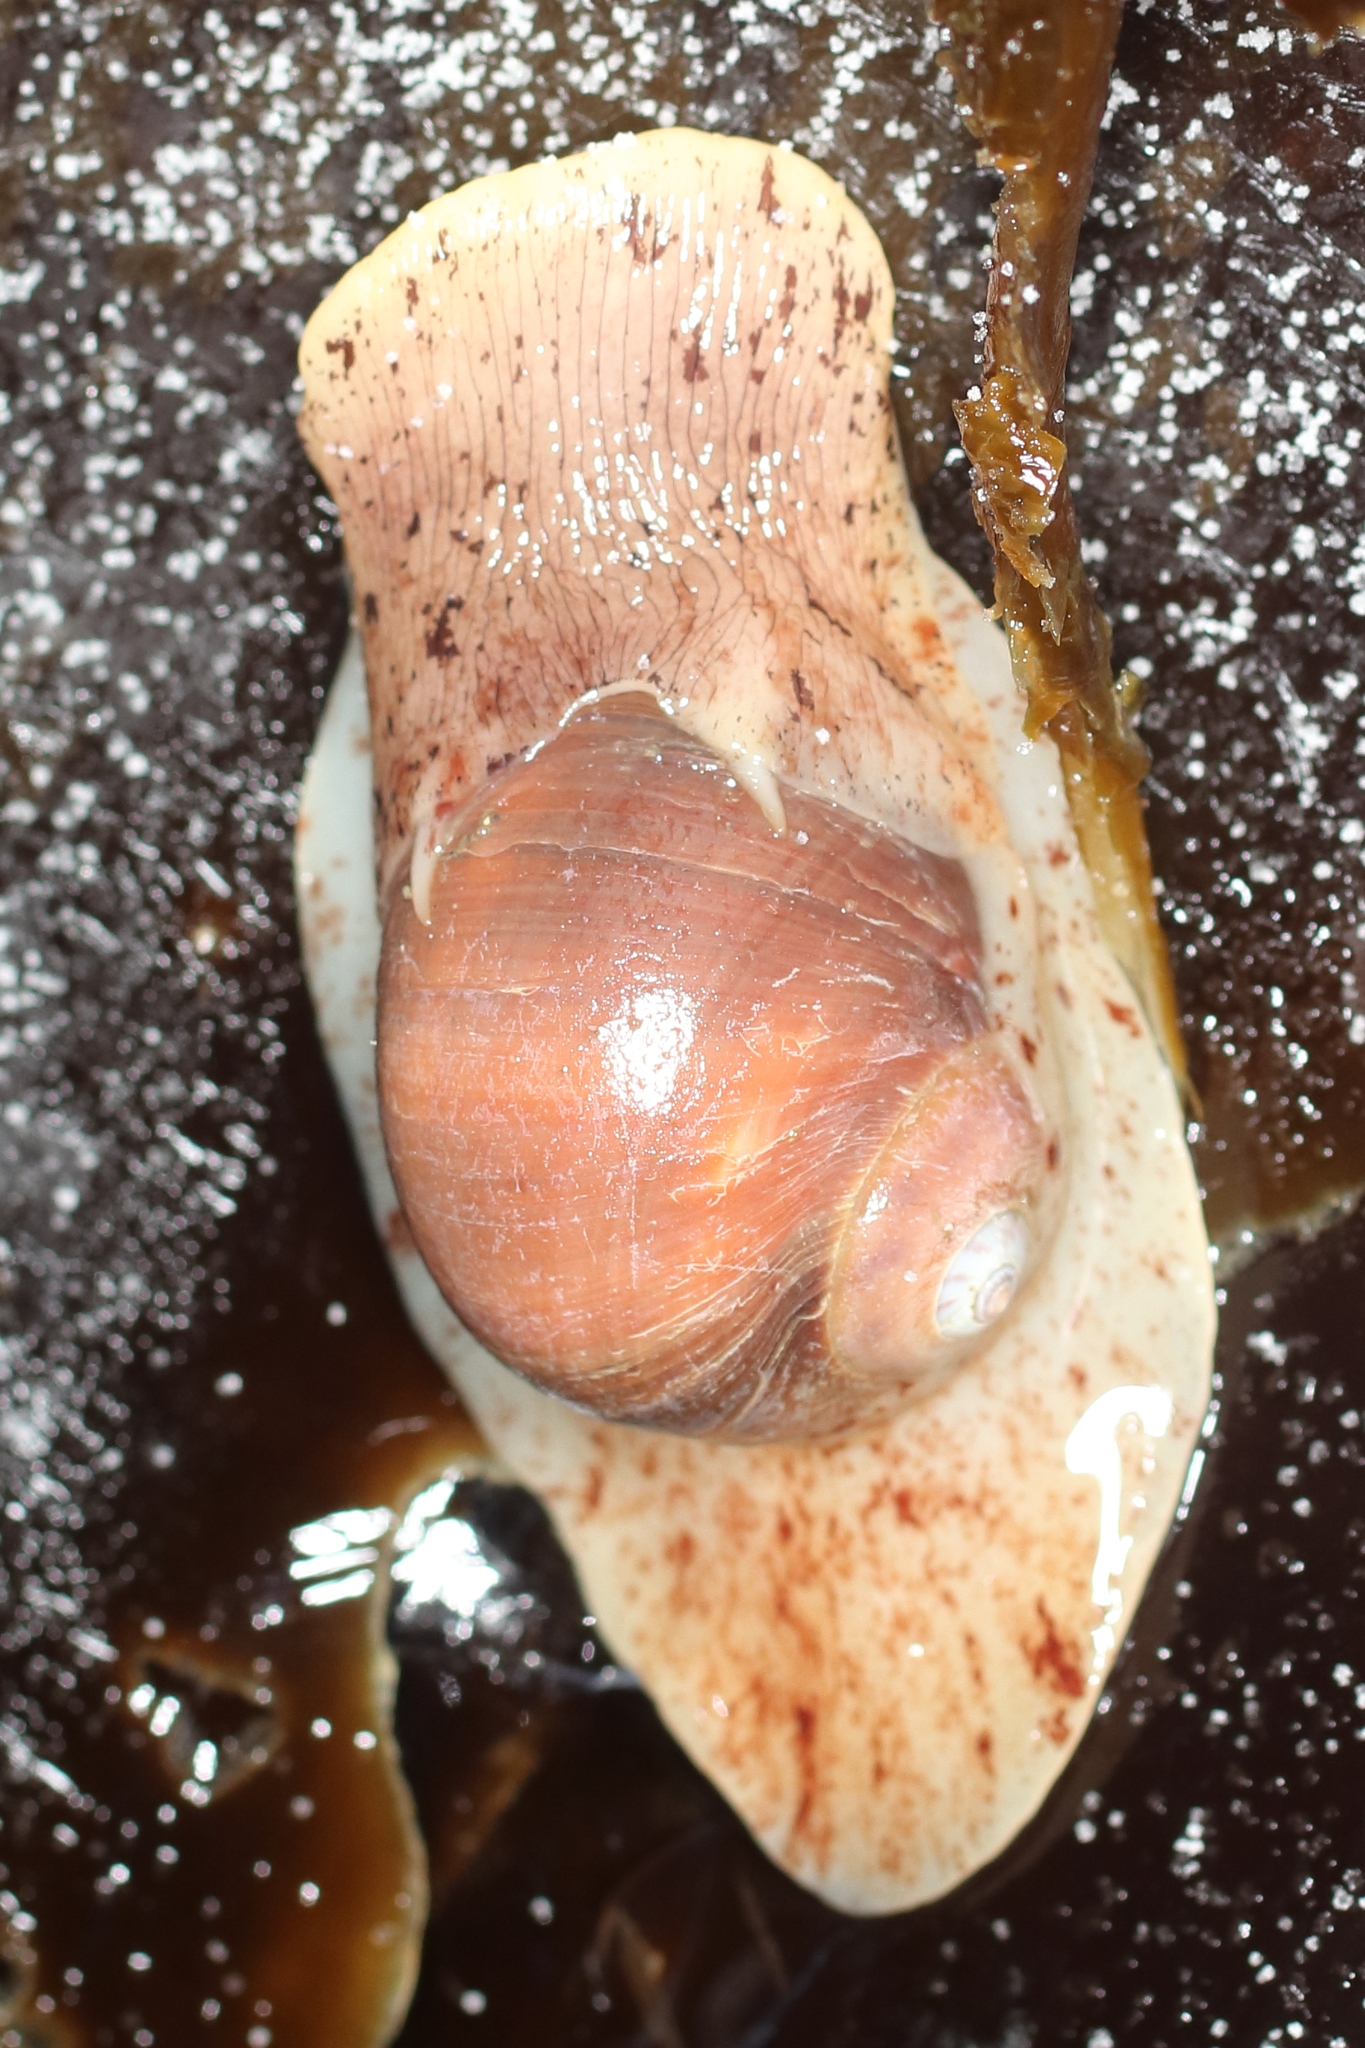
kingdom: Animalia
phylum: Mollusca
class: Gastropoda
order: Littorinimorpha
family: Naticidae
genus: Cryptonatica
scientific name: Cryptonatica aleutica
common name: Aleutian moon snail
